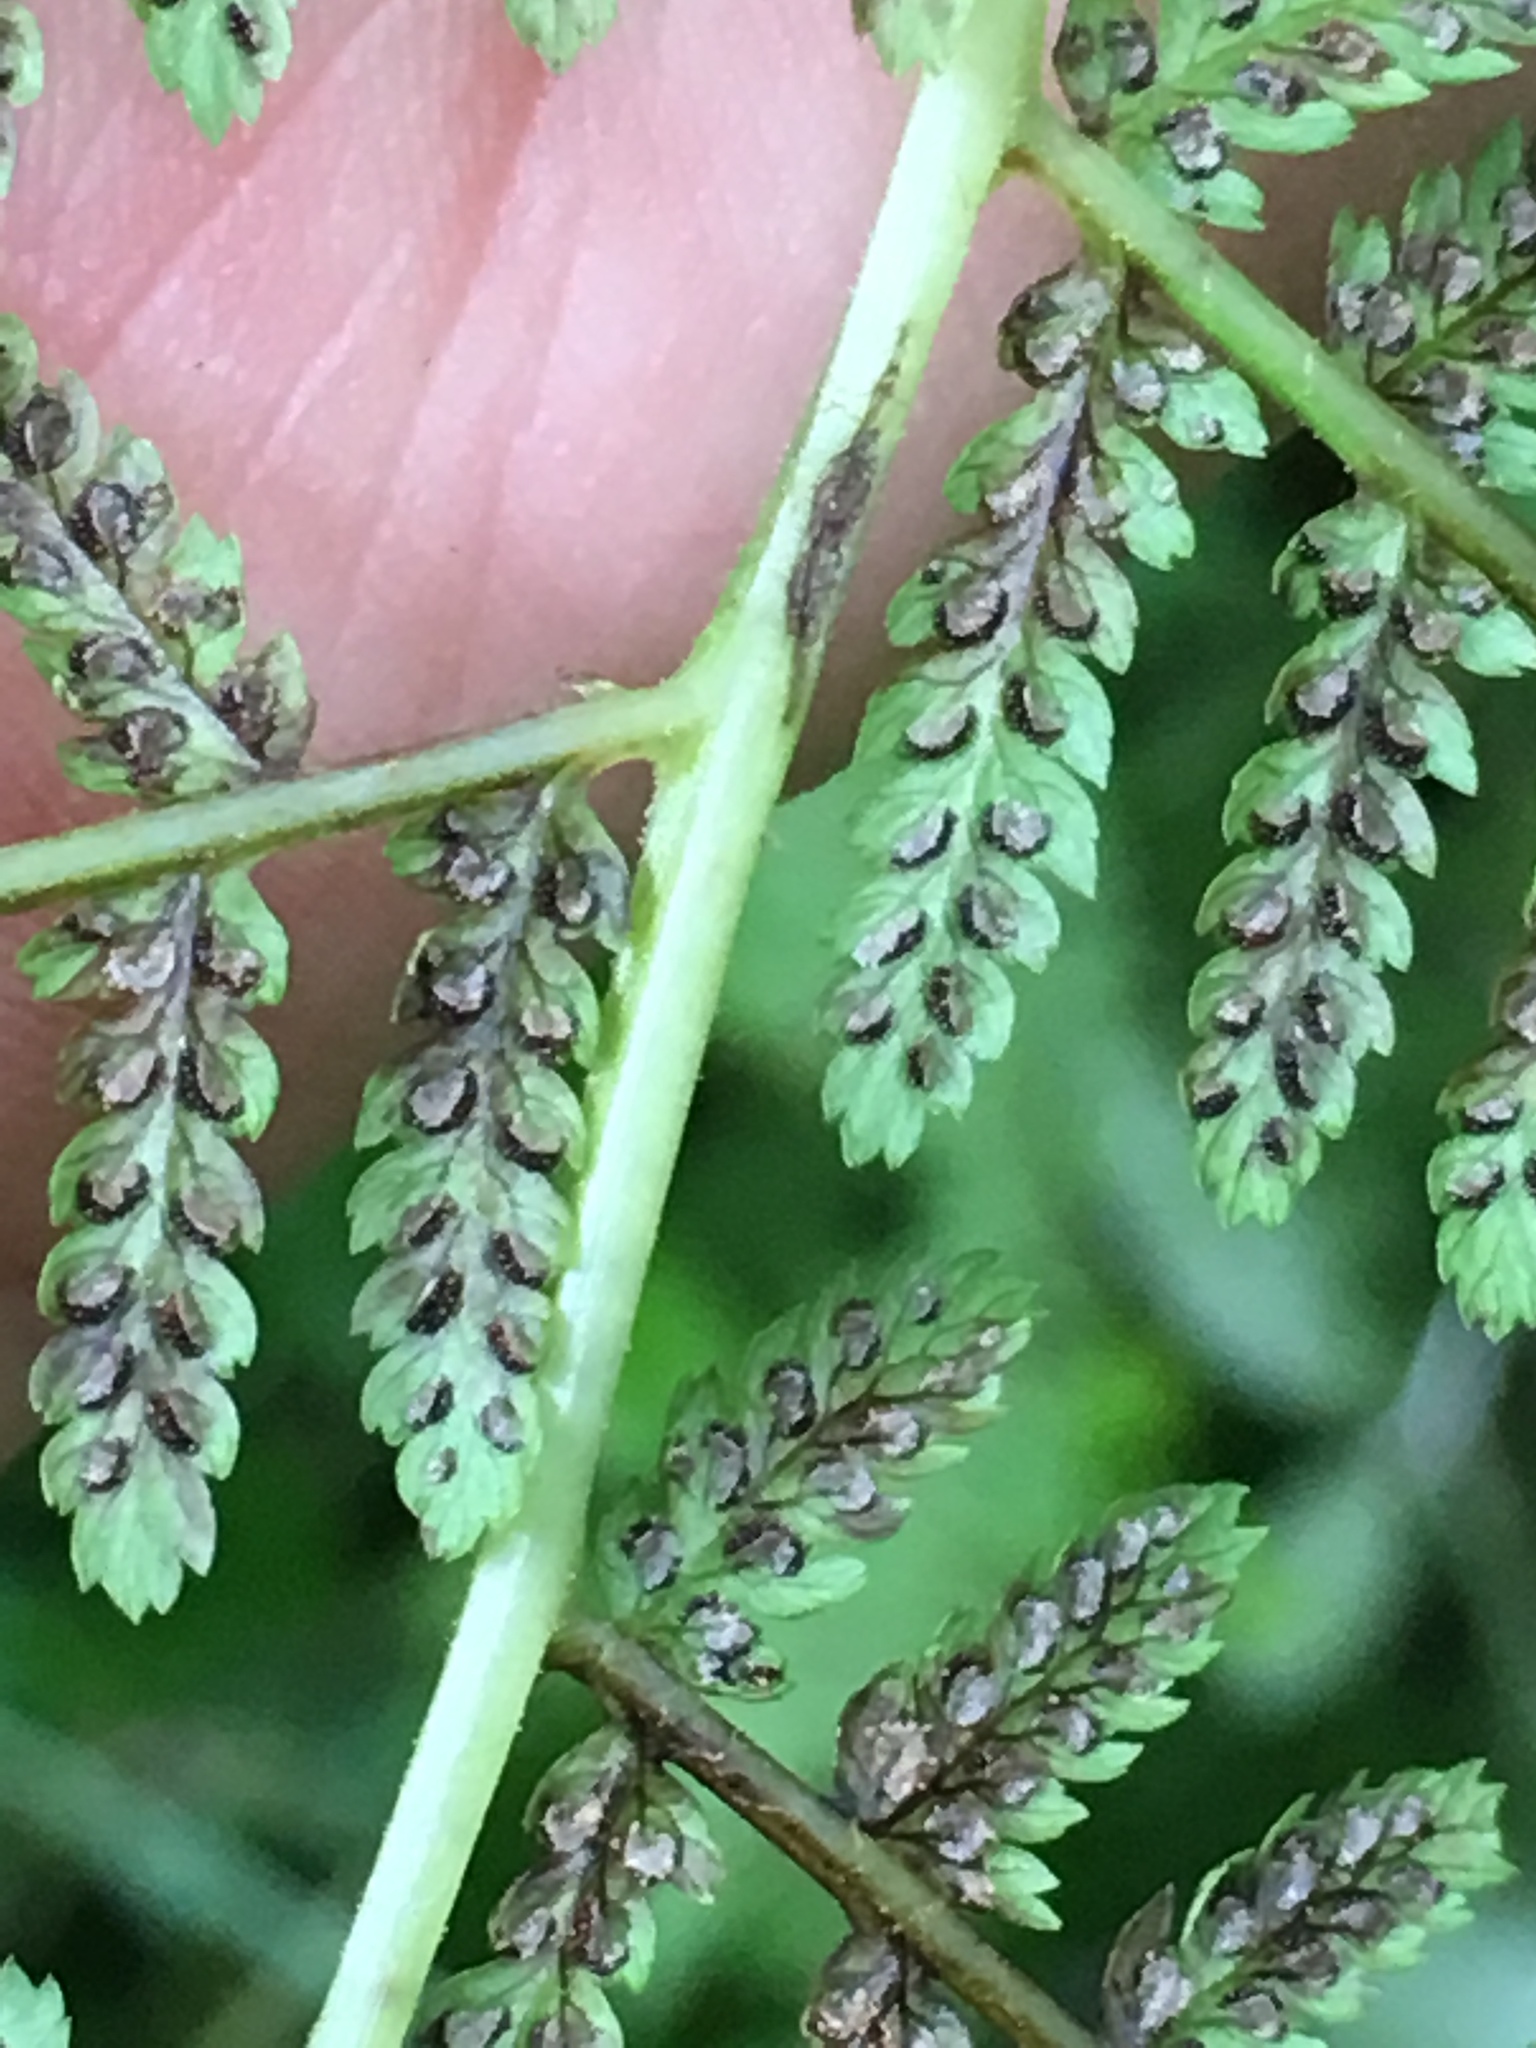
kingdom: Plantae
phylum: Tracheophyta
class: Polypodiopsida
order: Polypodiales
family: Athyriaceae
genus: Athyrium
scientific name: Athyrium angustum
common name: Northern lady fern
